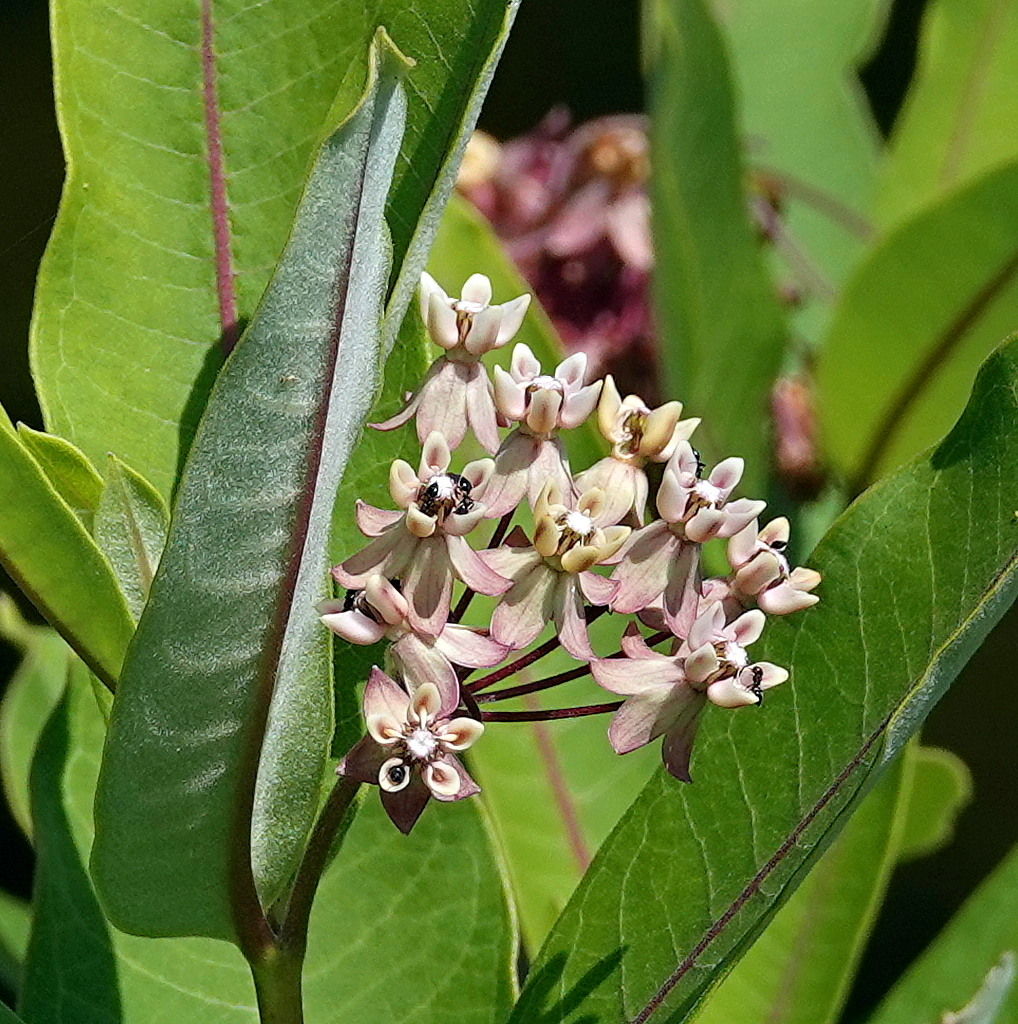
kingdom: Plantae
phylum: Tracheophyta
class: Magnoliopsida
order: Gentianales
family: Apocynaceae
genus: Asclepias
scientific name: Asclepias syriaca
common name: Common milkweed
